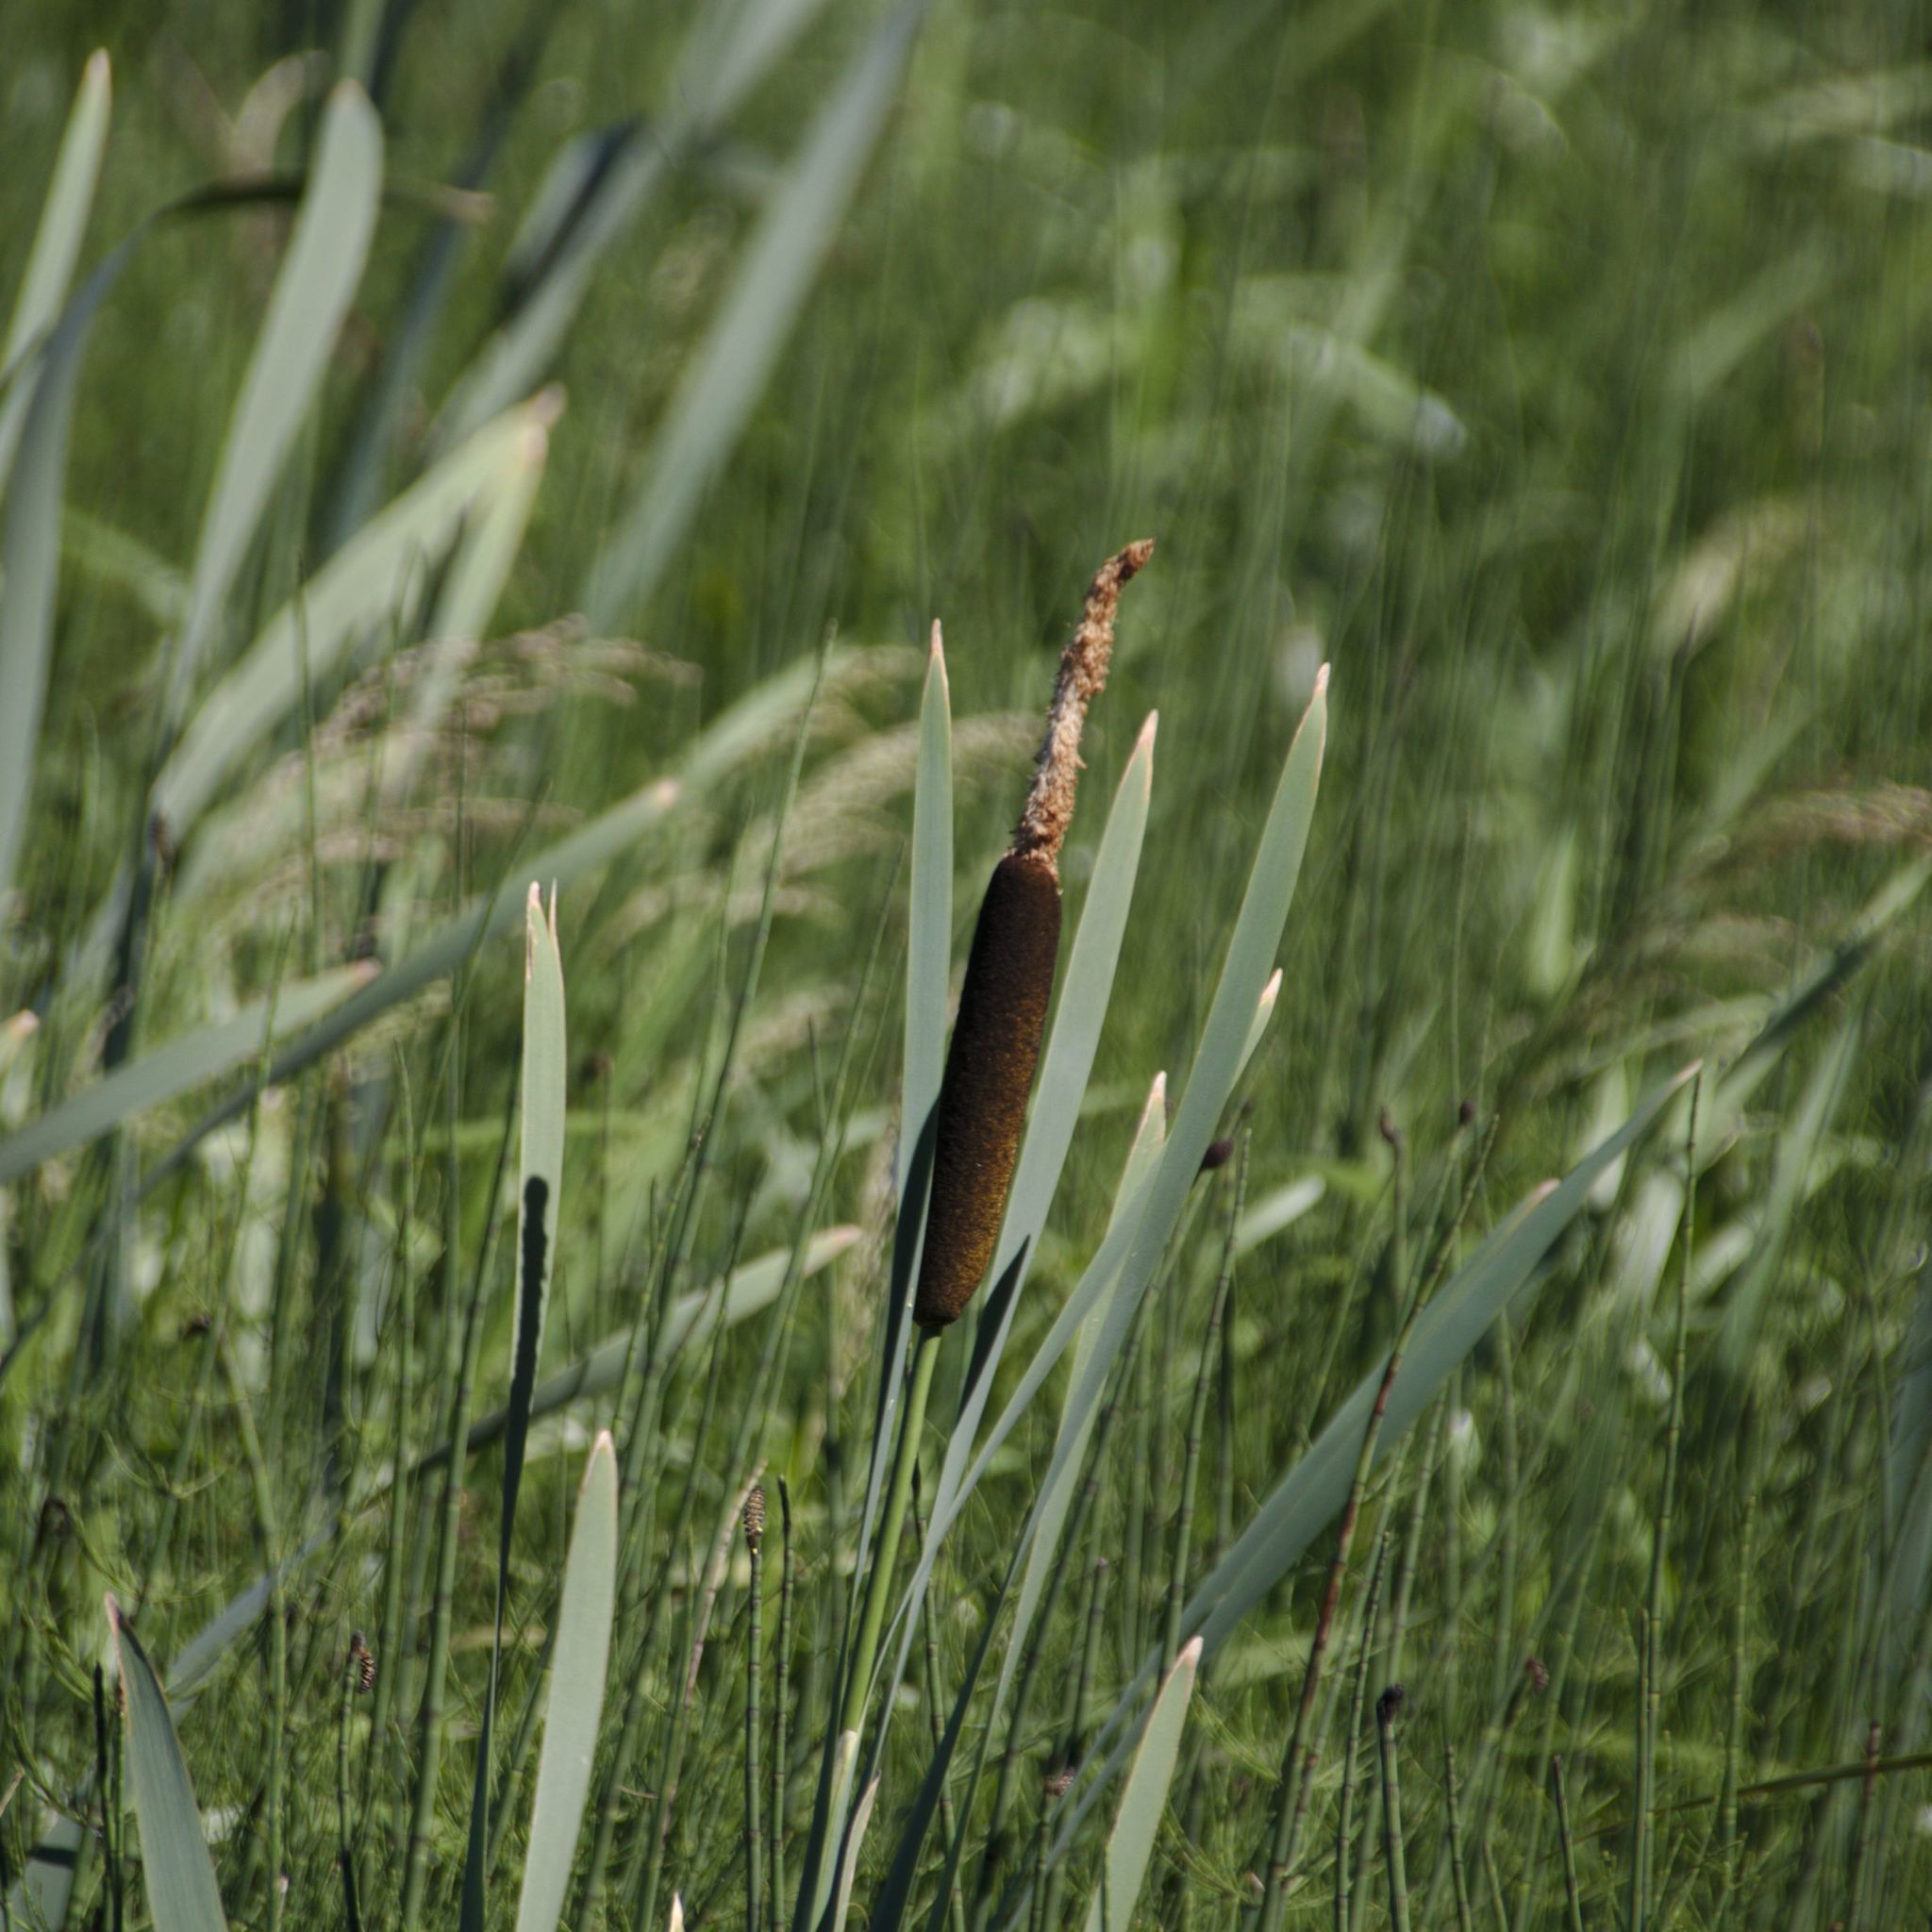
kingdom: Plantae
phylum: Tracheophyta
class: Liliopsida
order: Poales
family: Typhaceae
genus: Typha
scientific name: Typha latifolia
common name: Broadleaf cattail
